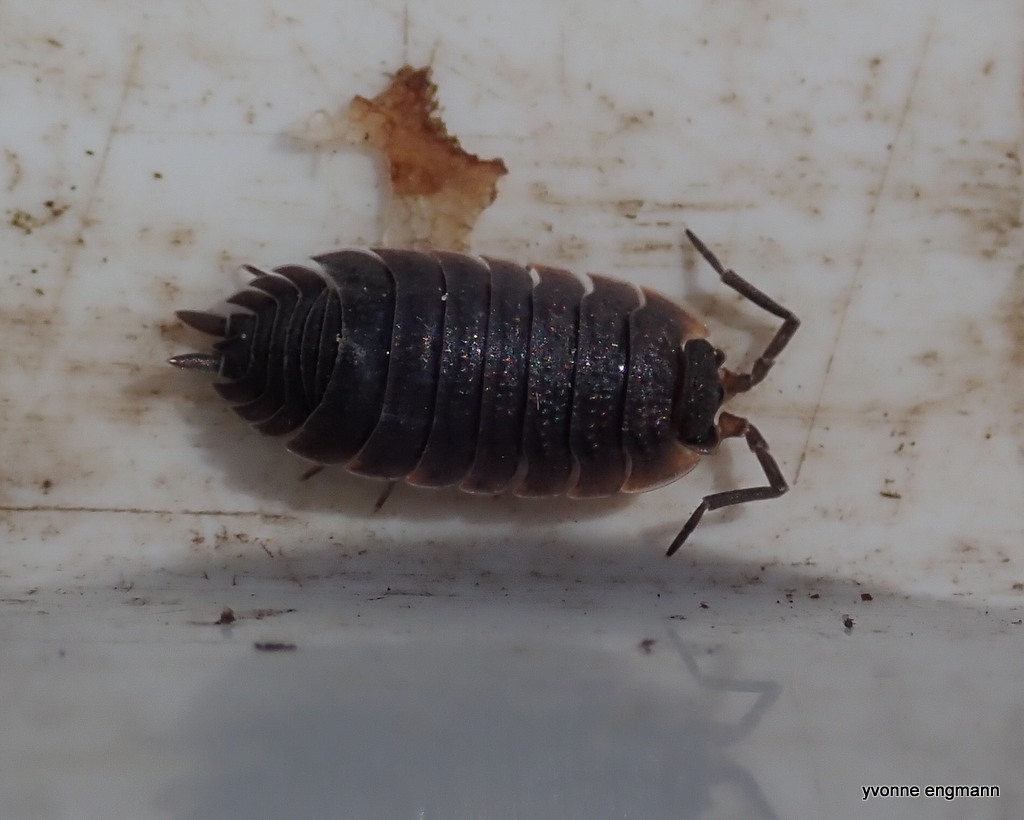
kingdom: Animalia
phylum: Arthropoda
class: Malacostraca
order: Isopoda
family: Porcellionidae
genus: Porcellio
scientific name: Porcellio scaber
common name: Common rough woodlouse
